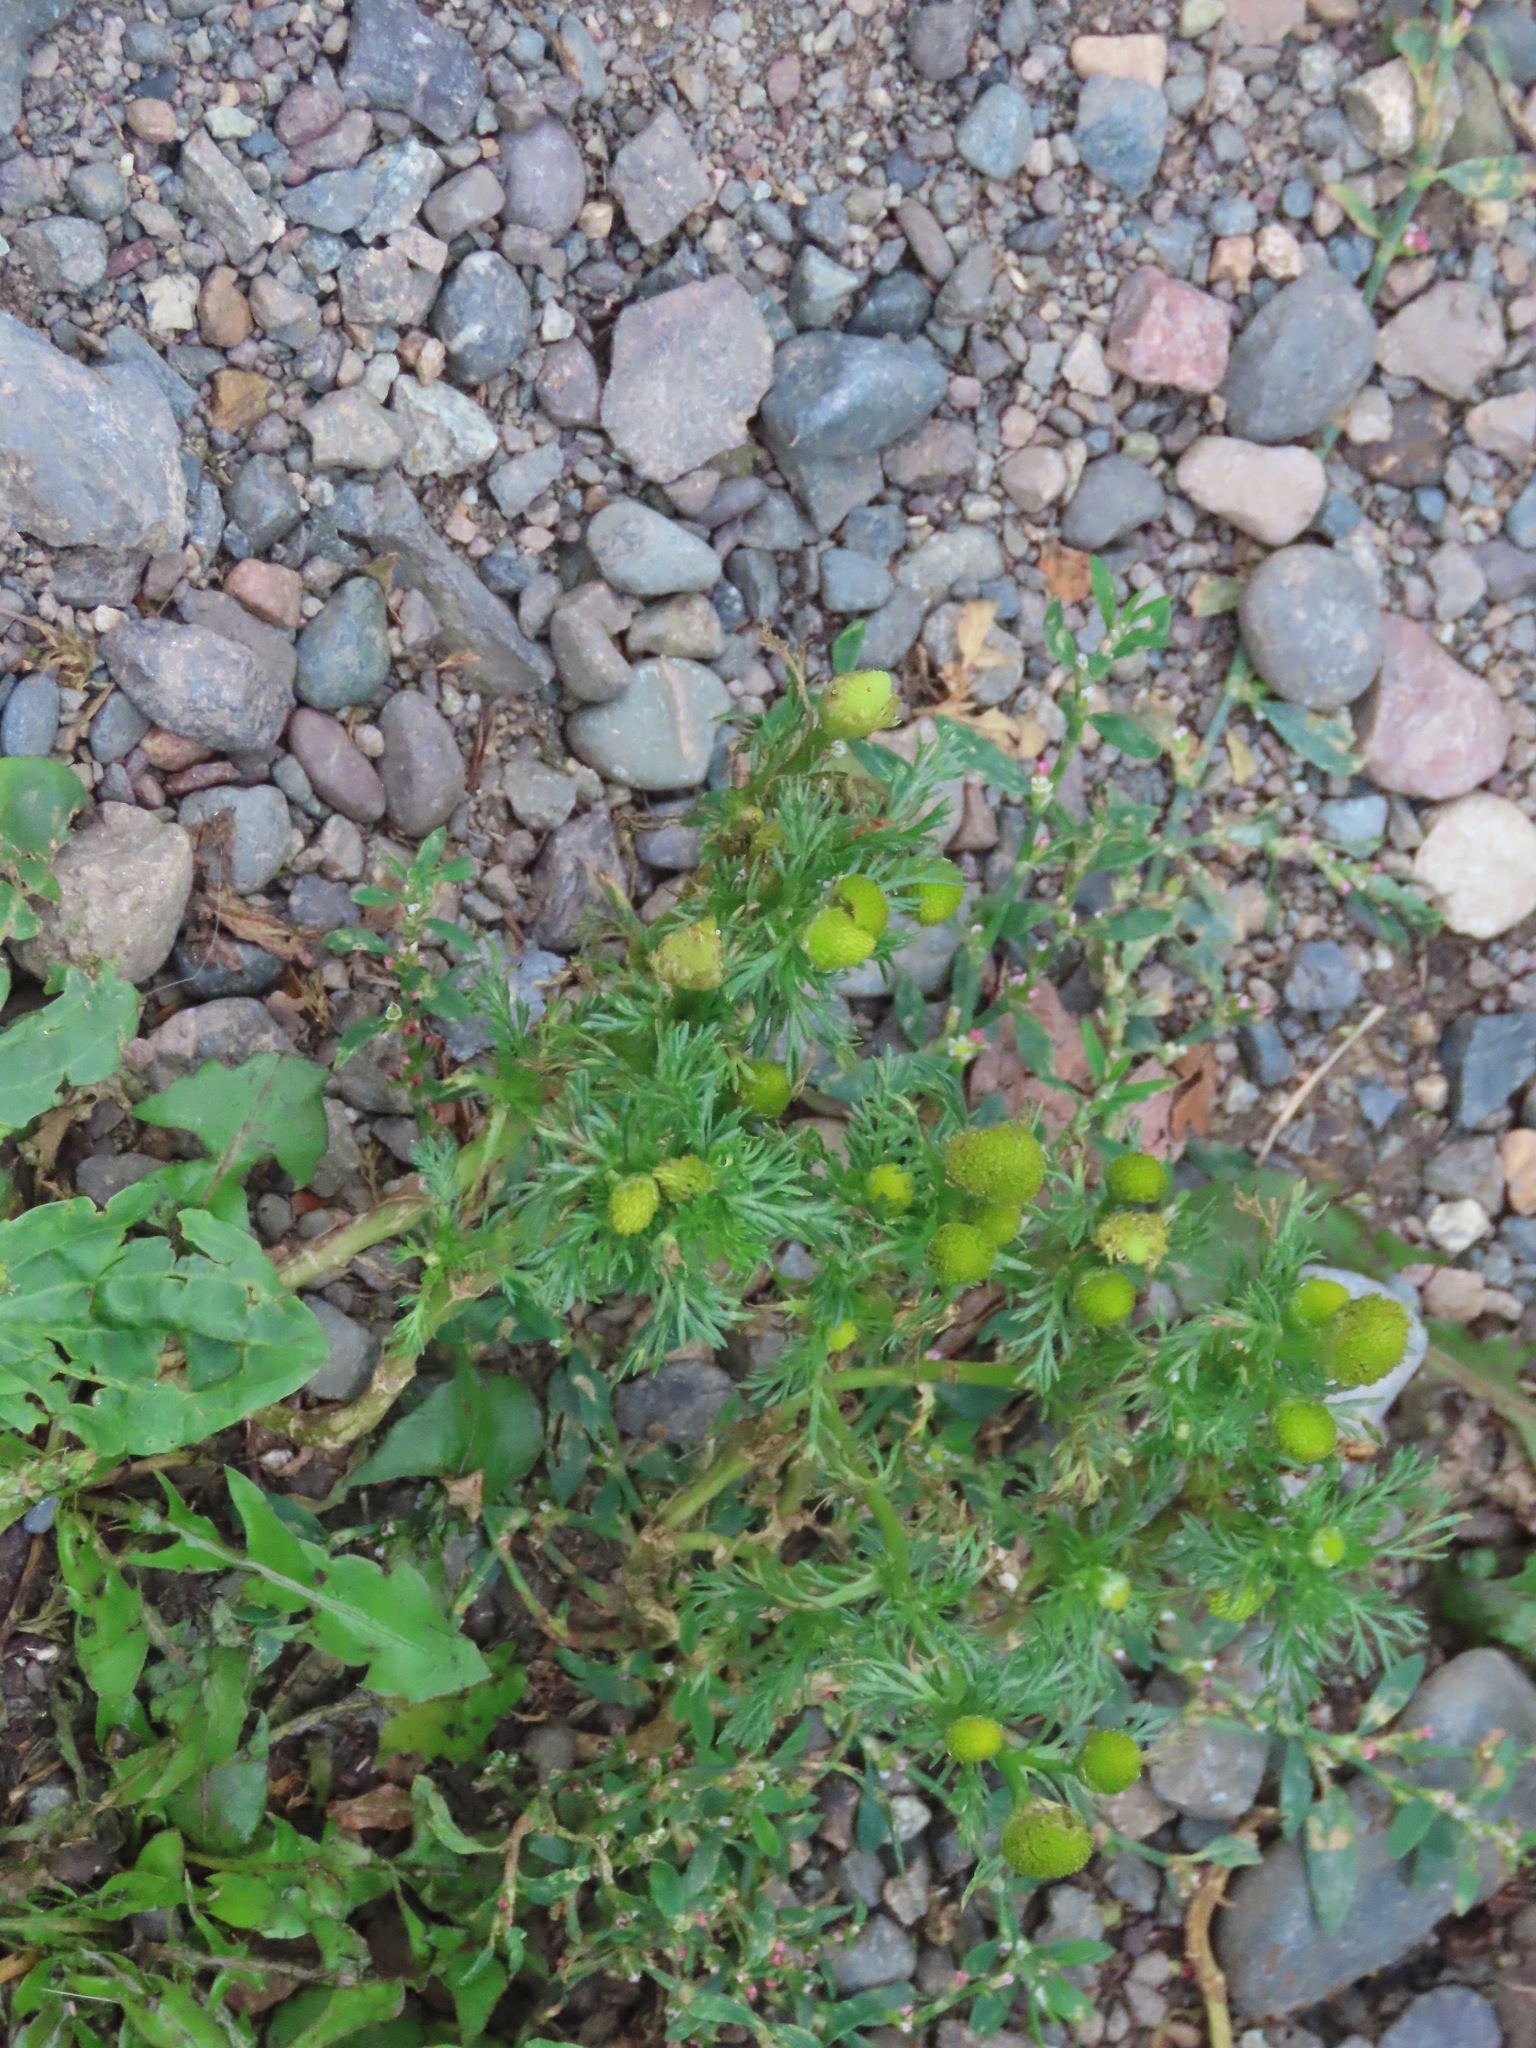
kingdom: Plantae
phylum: Tracheophyta
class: Magnoliopsida
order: Asterales
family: Asteraceae
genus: Matricaria
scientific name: Matricaria discoidea
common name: Disc mayweed
